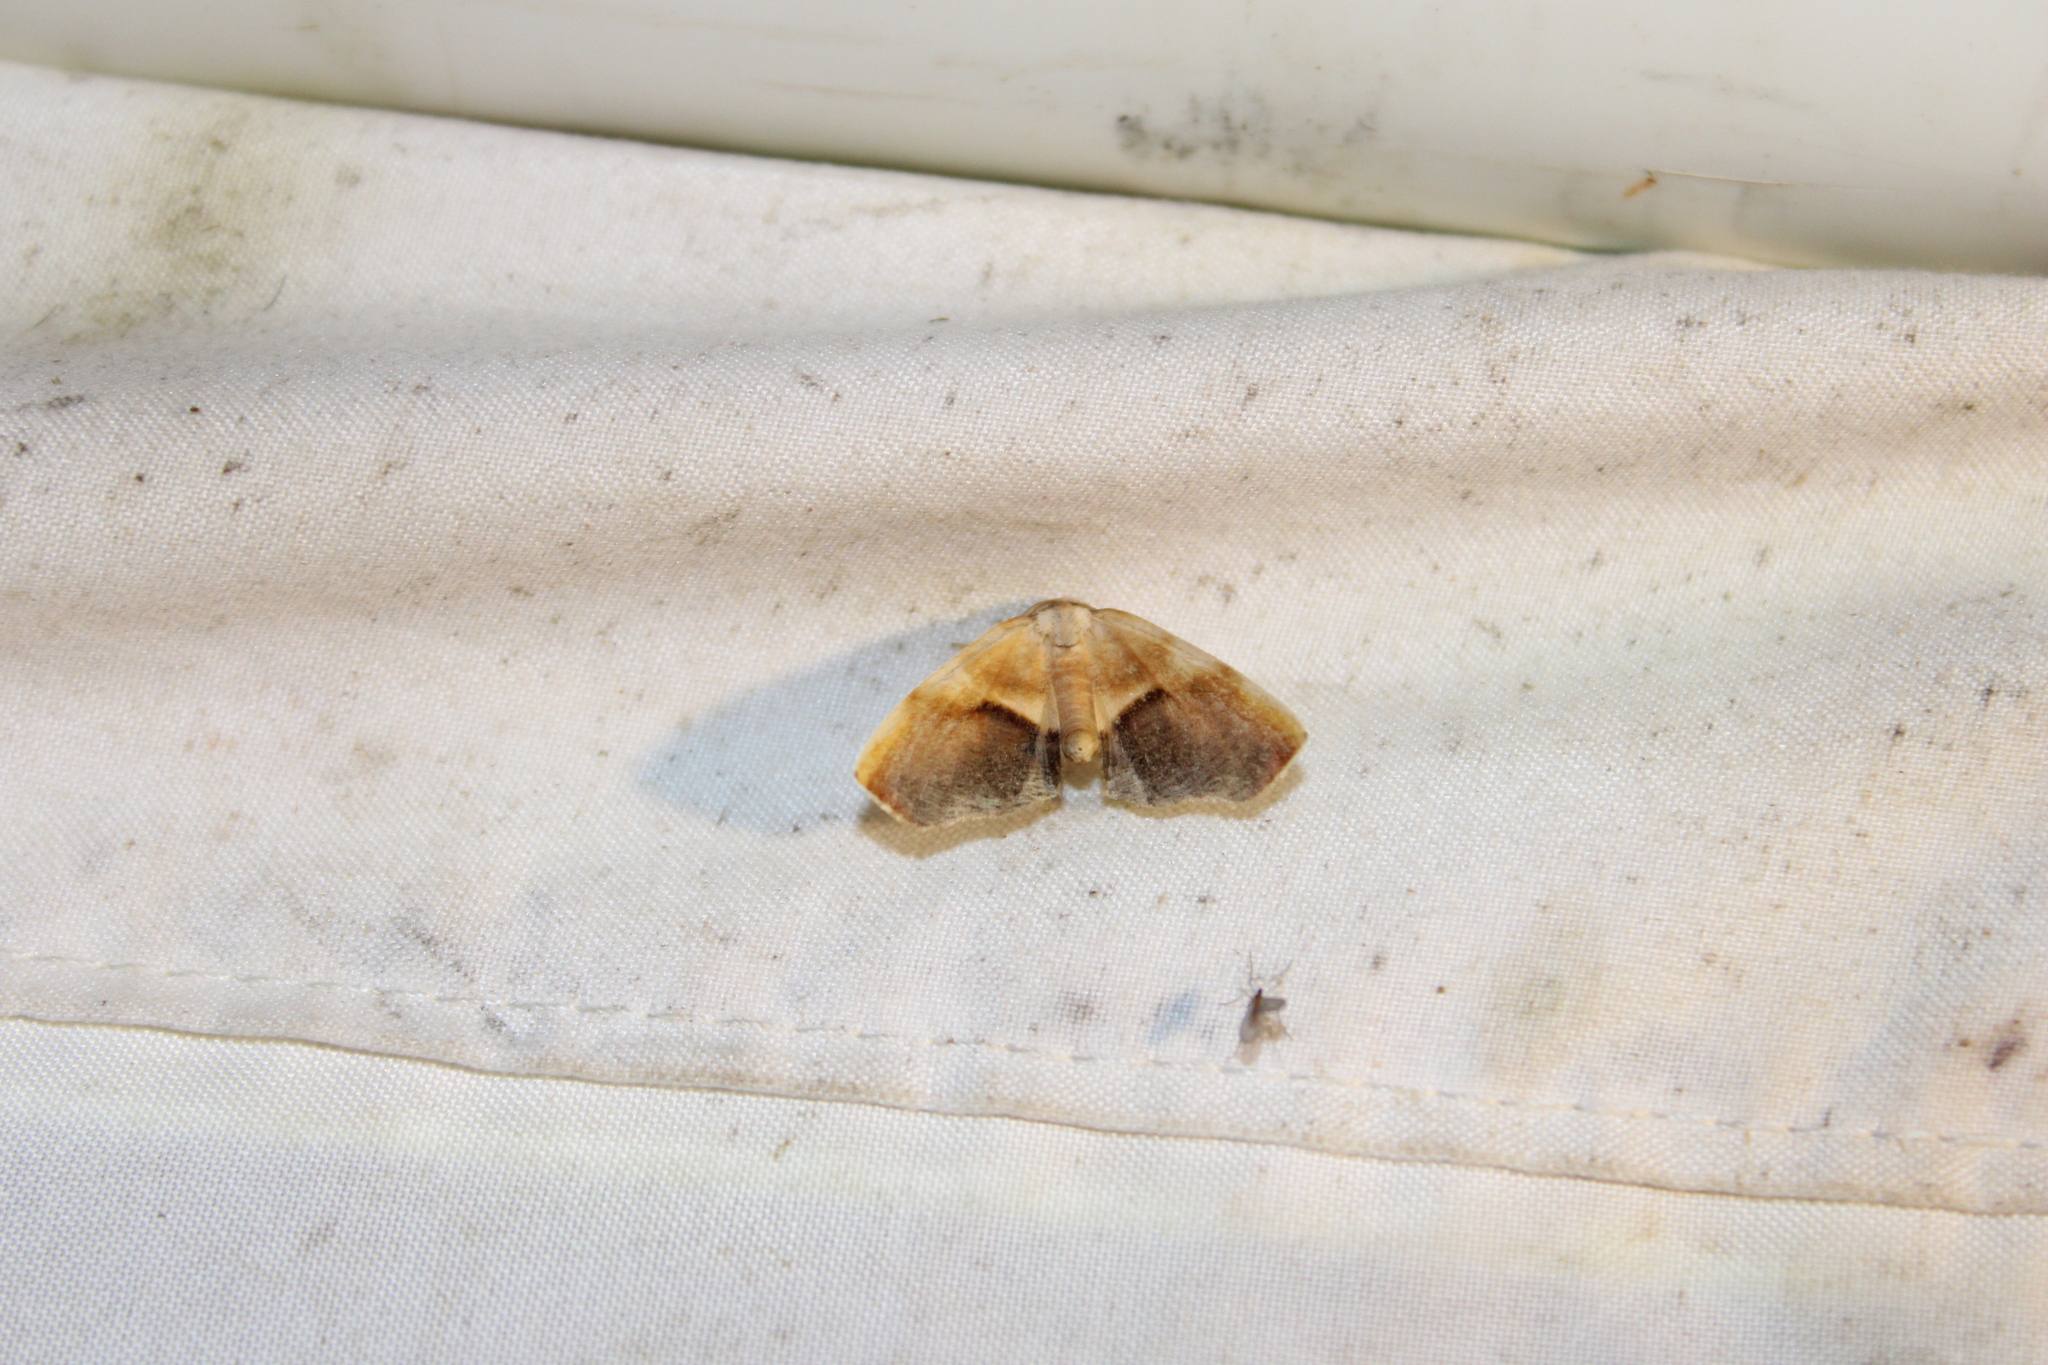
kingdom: Animalia
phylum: Arthropoda
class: Insecta
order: Lepidoptera
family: Geometridae
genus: Plagodis
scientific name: Plagodis kuetzingi
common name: Purple plagodis
